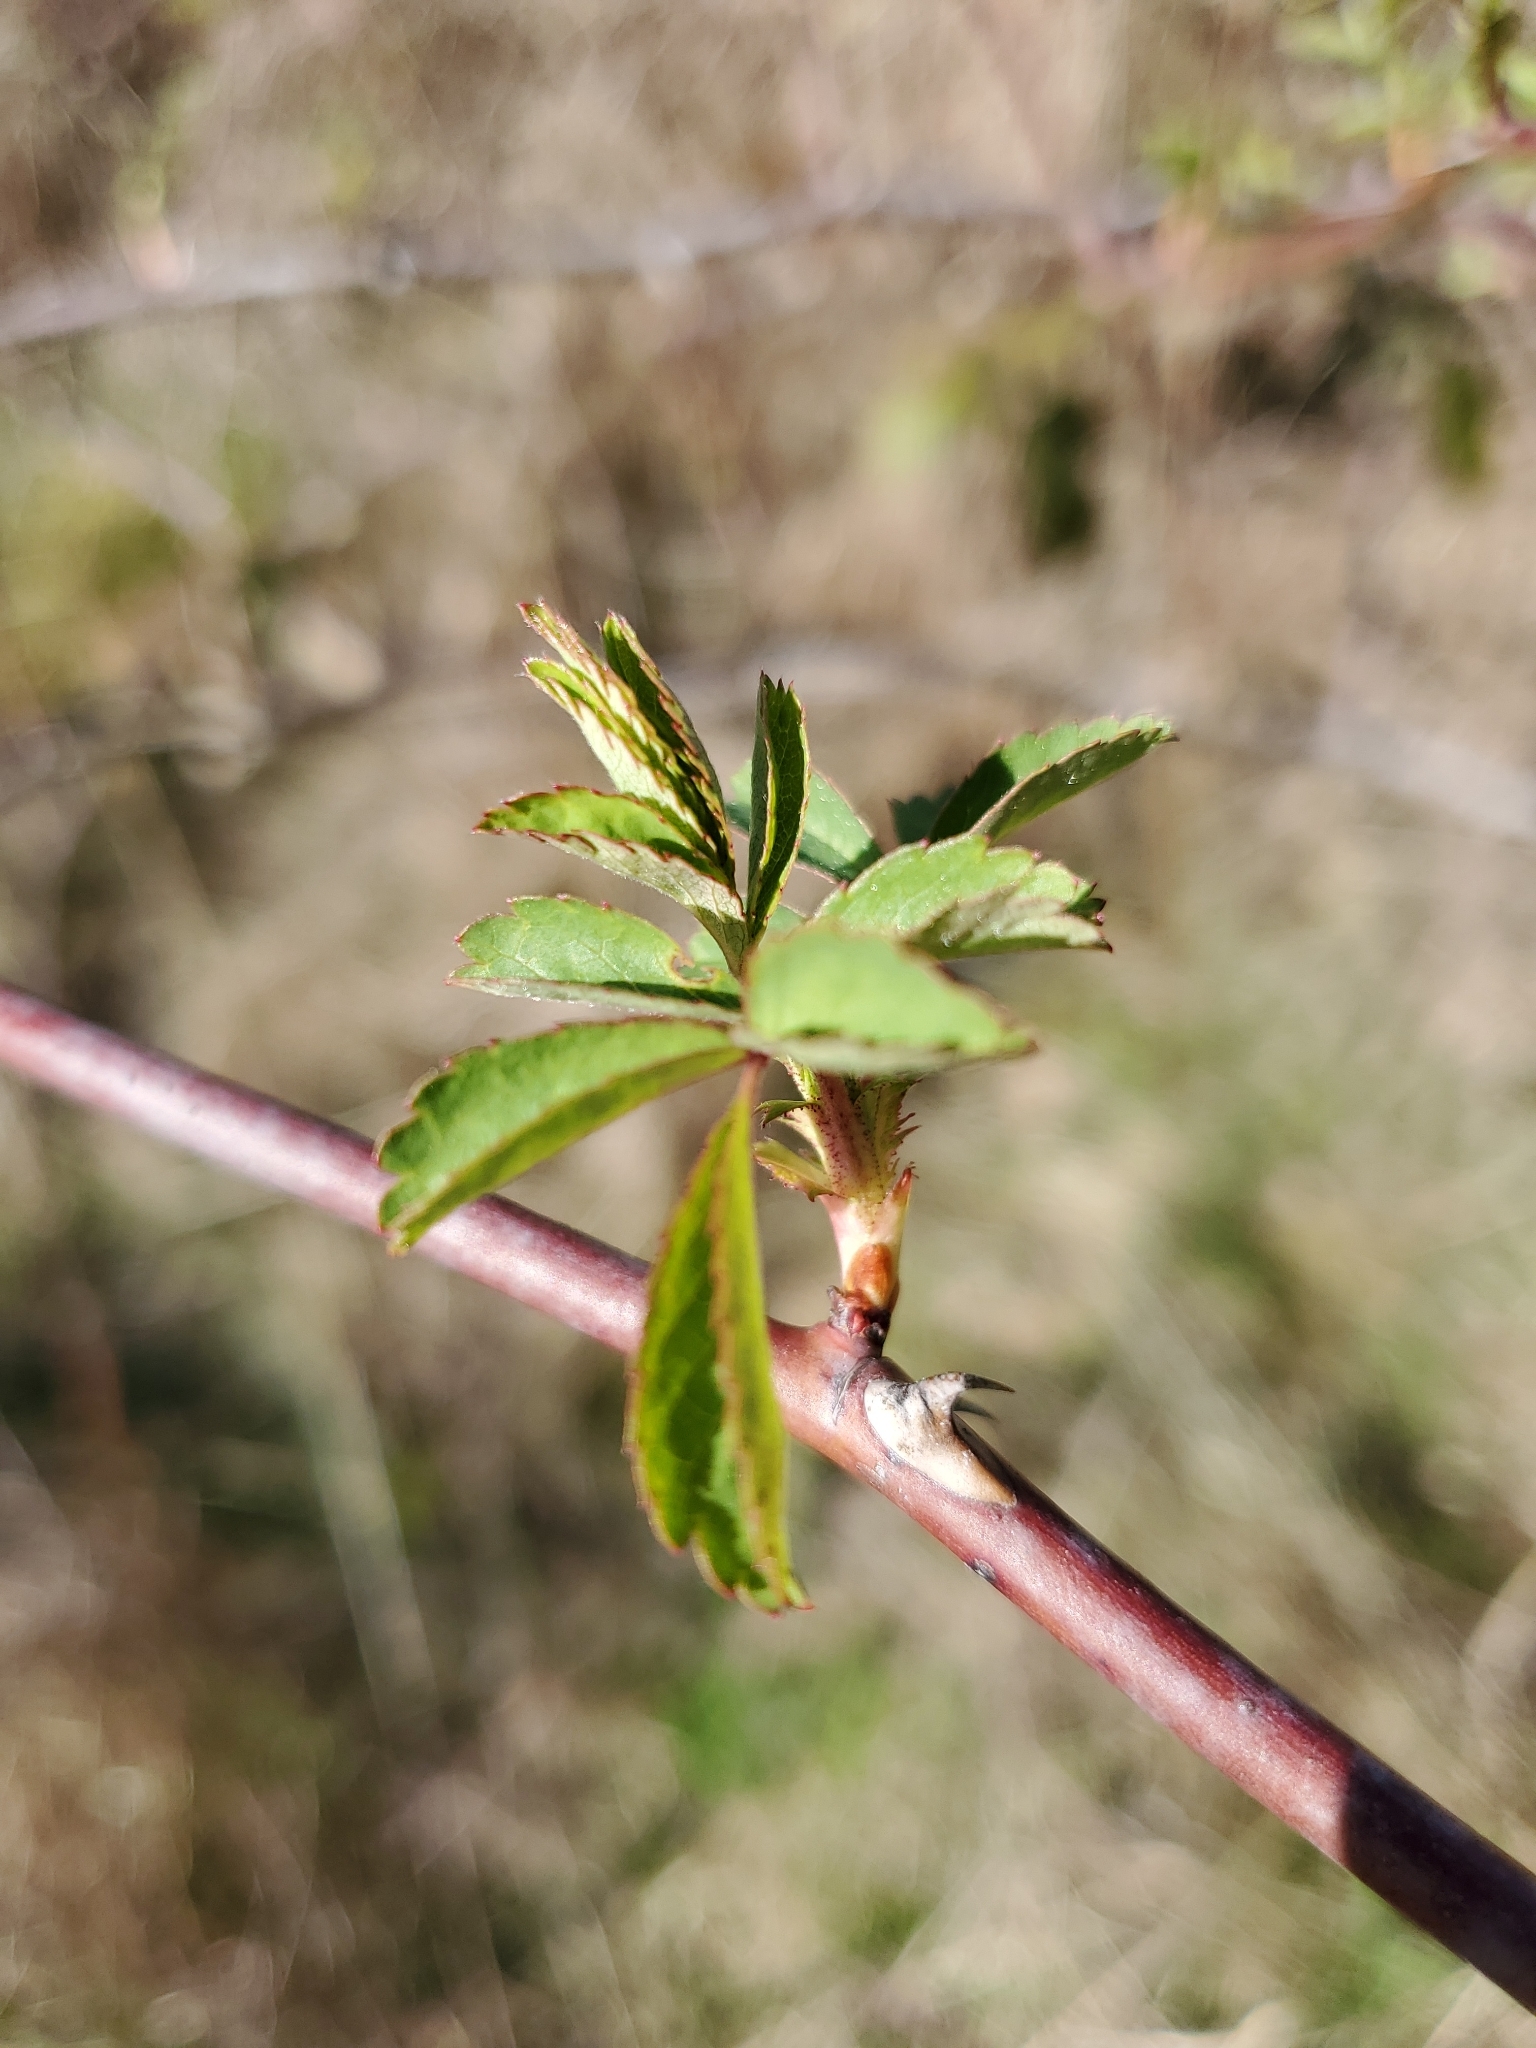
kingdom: Plantae
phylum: Tracheophyta
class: Magnoliopsida
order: Rosales
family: Rosaceae
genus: Rosa
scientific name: Rosa multiflora
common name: Multiflora rose
